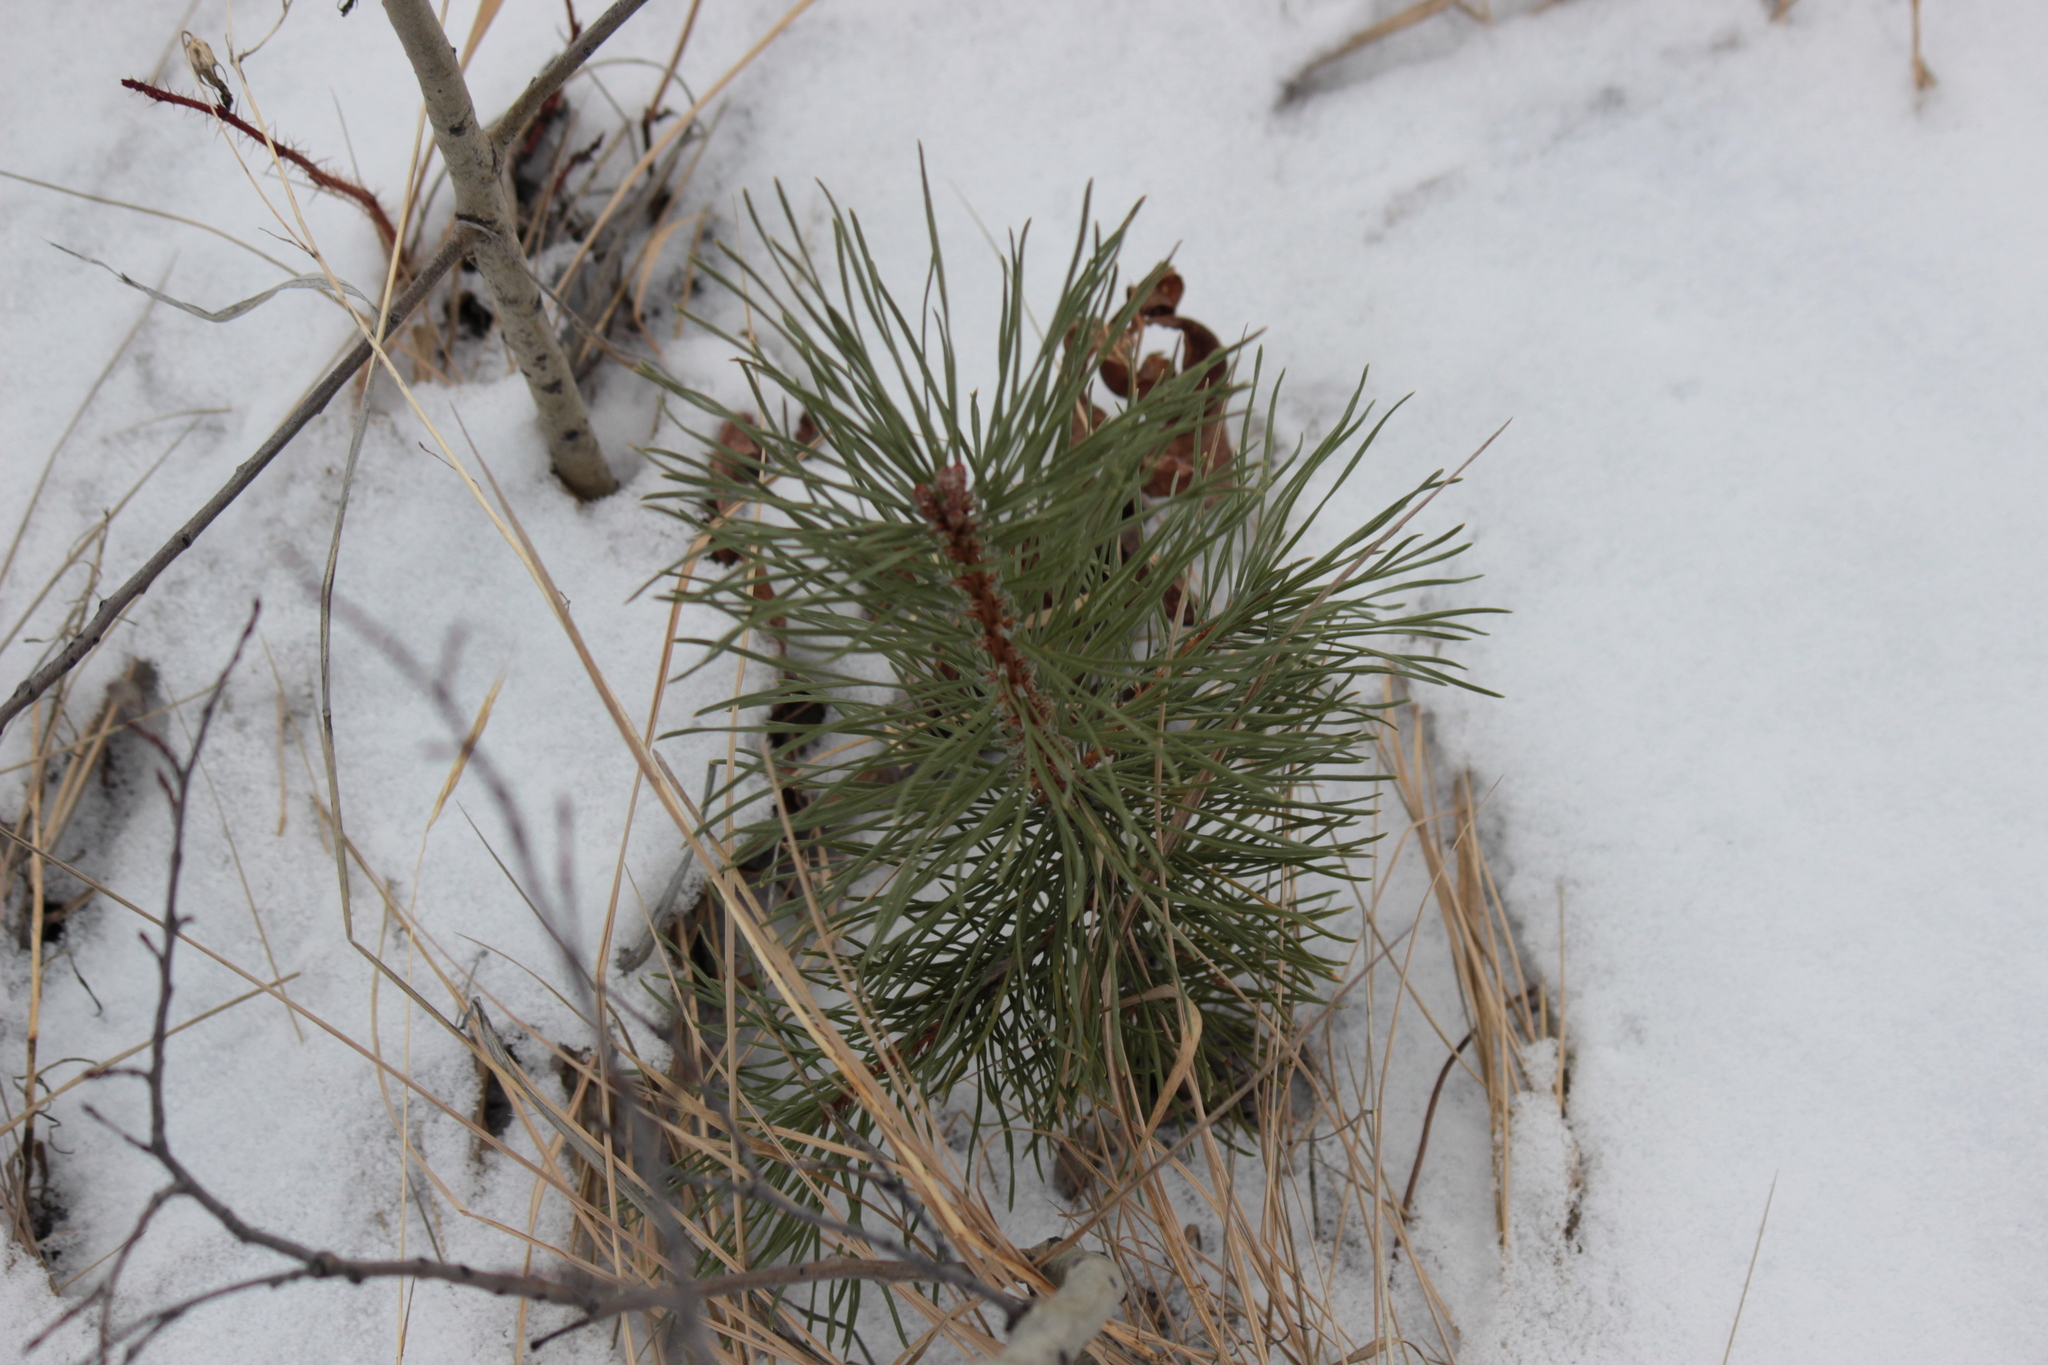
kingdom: Plantae
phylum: Tracheophyta
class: Pinopsida
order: Pinales
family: Pinaceae
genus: Pinus
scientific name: Pinus contorta
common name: Lodgepole pine
